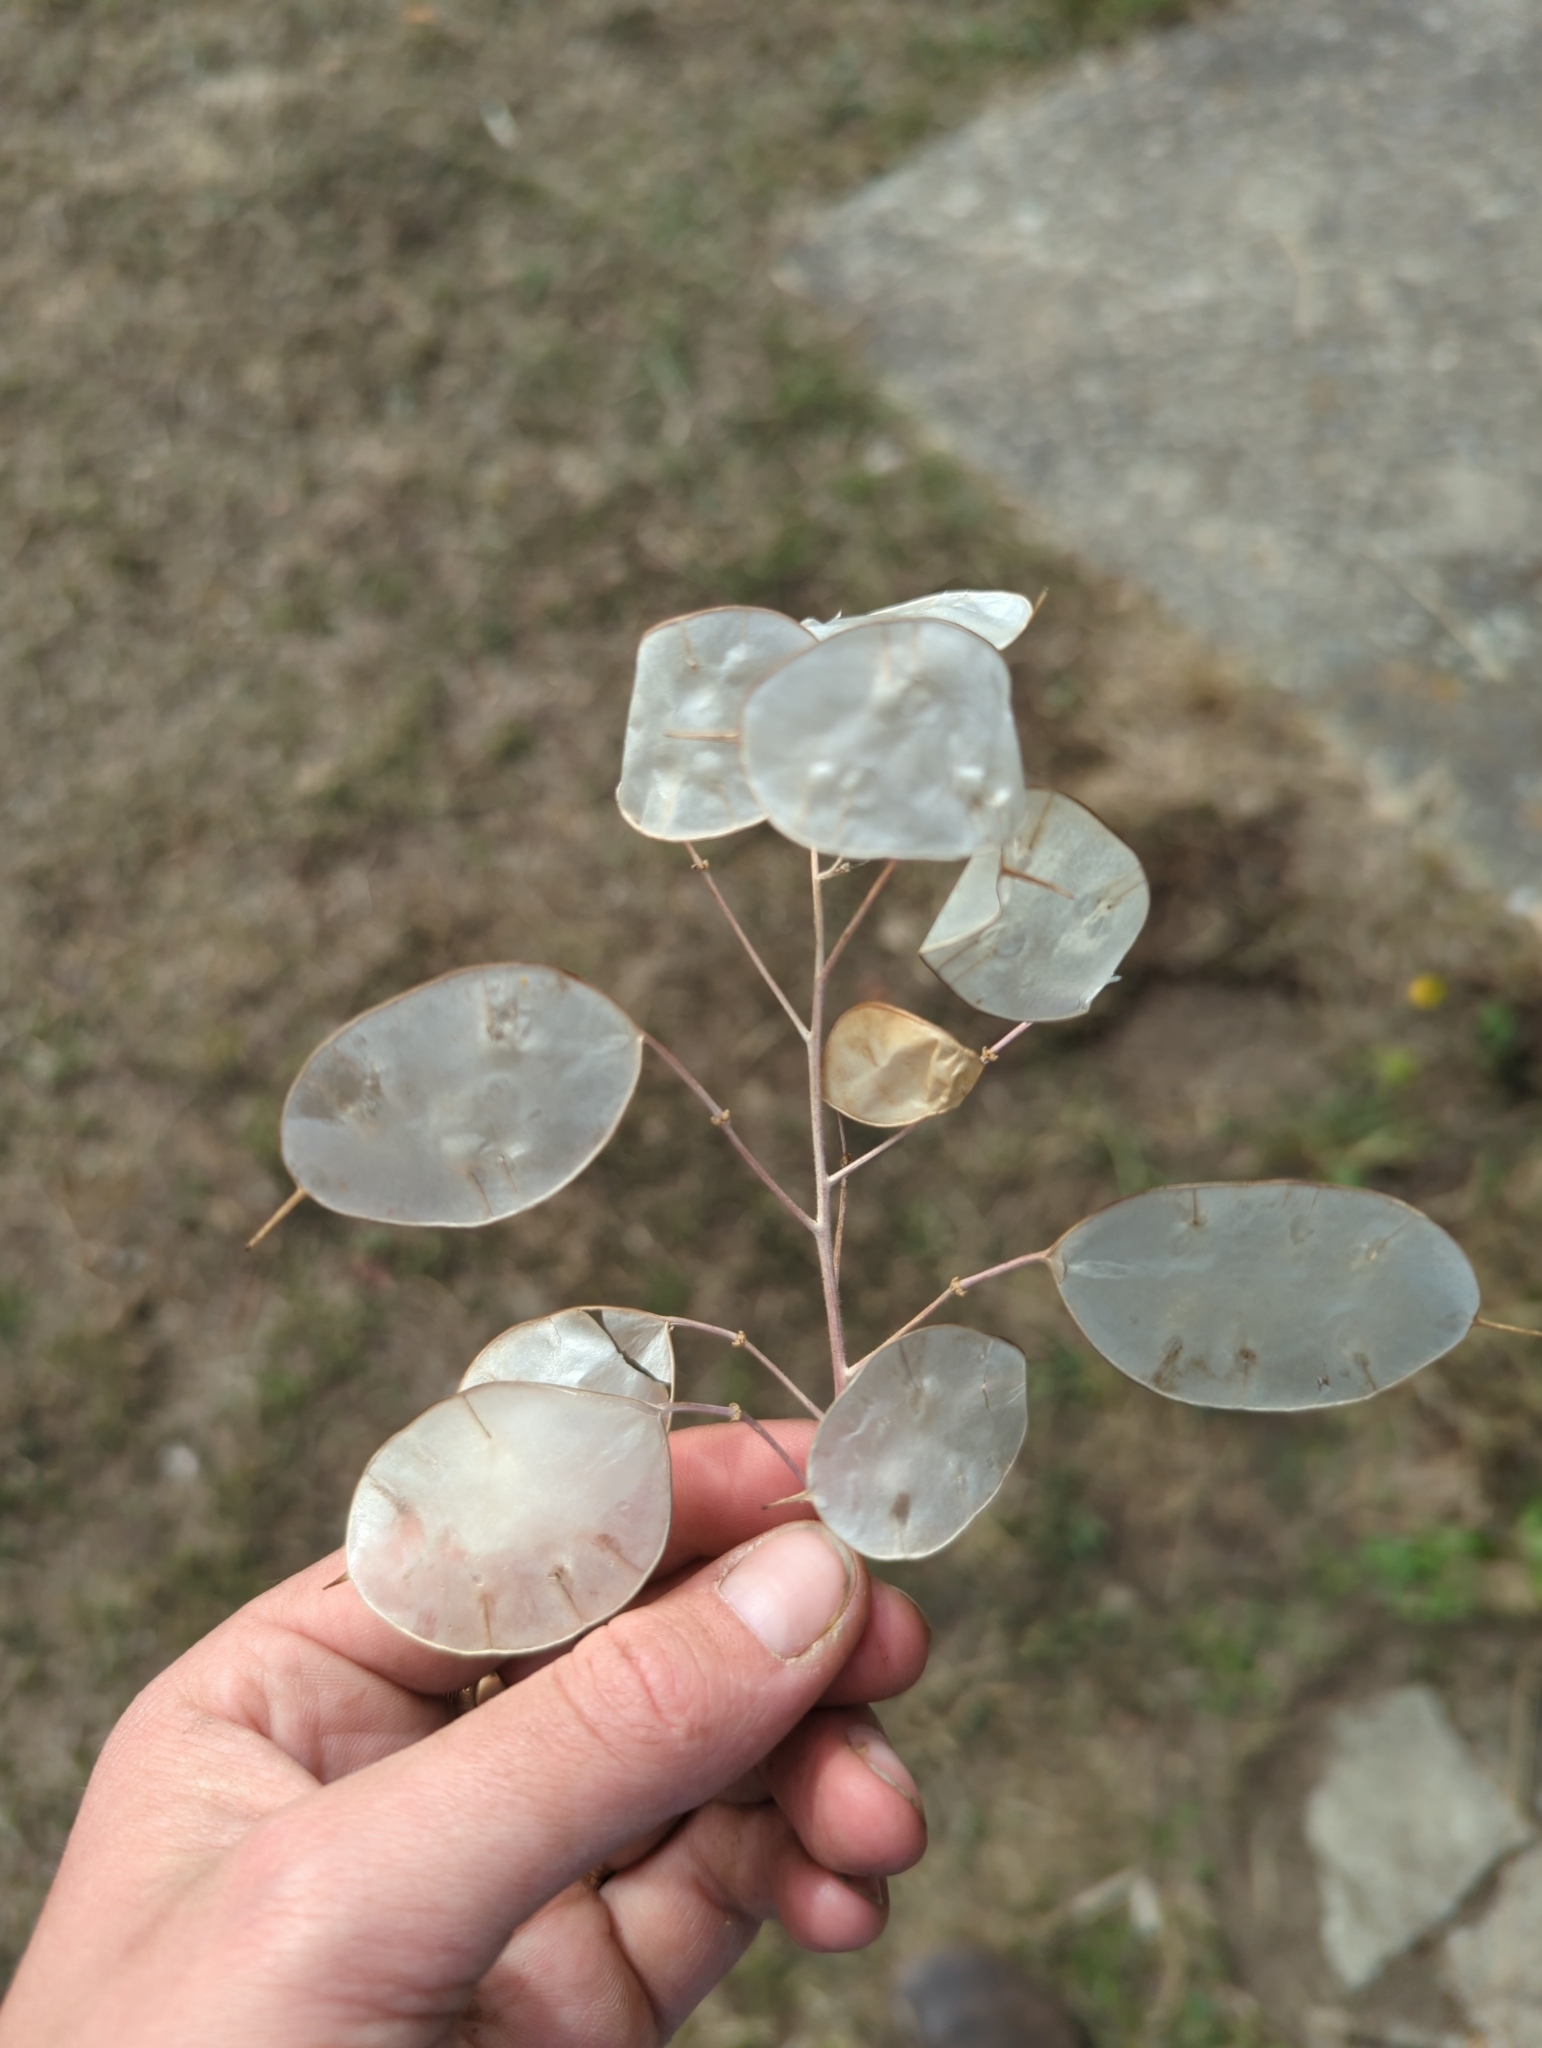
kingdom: Plantae
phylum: Tracheophyta
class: Magnoliopsida
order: Brassicales
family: Brassicaceae
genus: Lunaria
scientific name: Lunaria annua
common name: Honesty
